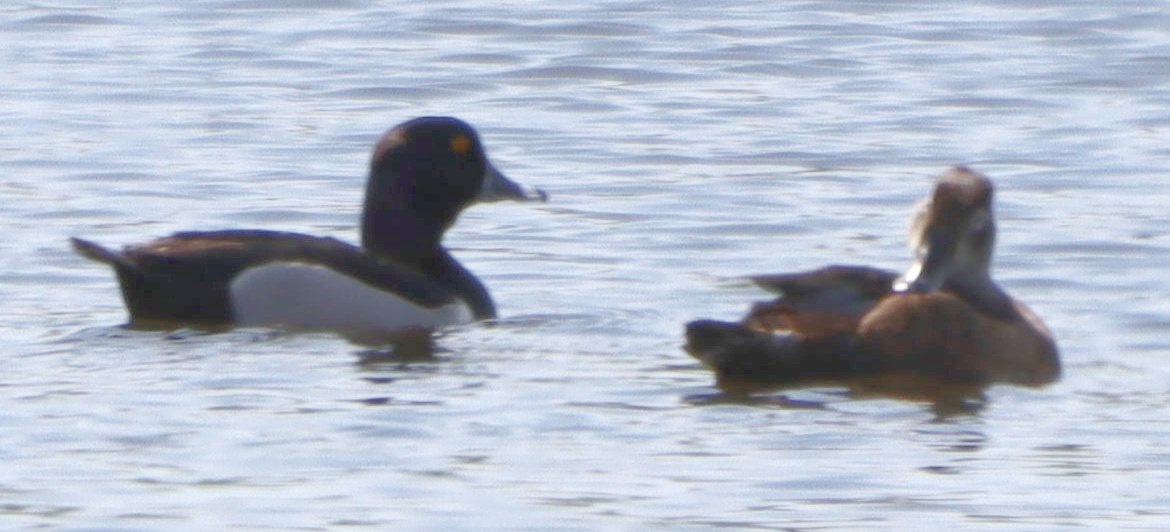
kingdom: Animalia
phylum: Chordata
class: Aves
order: Anseriformes
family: Anatidae
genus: Aythya
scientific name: Aythya collaris
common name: Ring-necked duck
